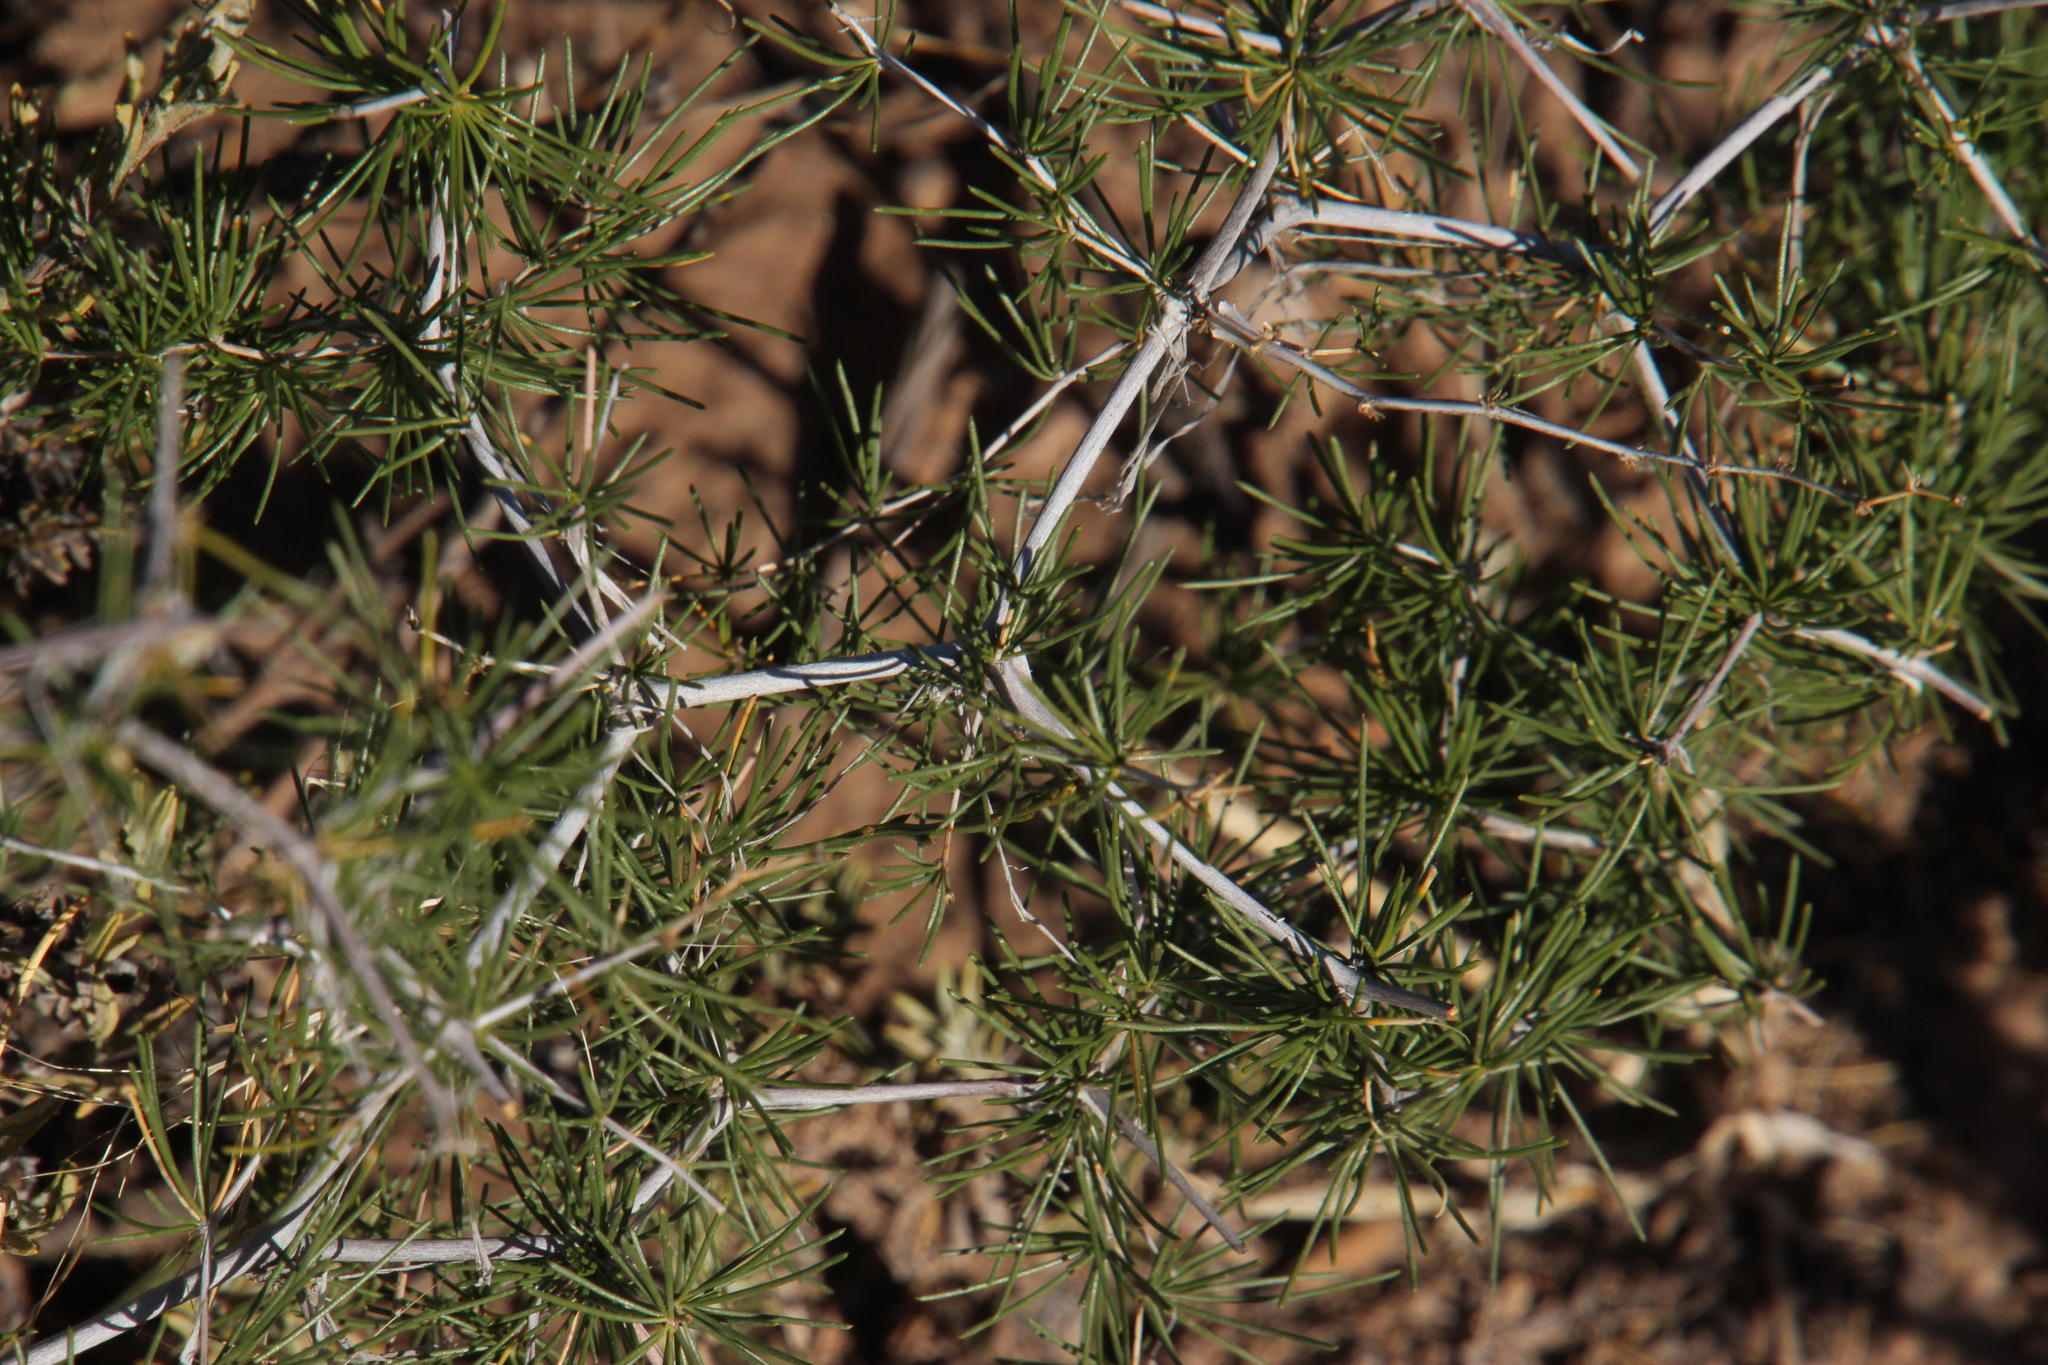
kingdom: Plantae
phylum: Tracheophyta
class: Liliopsida
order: Asparagales
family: Asparagaceae
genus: Asparagus
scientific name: Asparagus exuvialis
